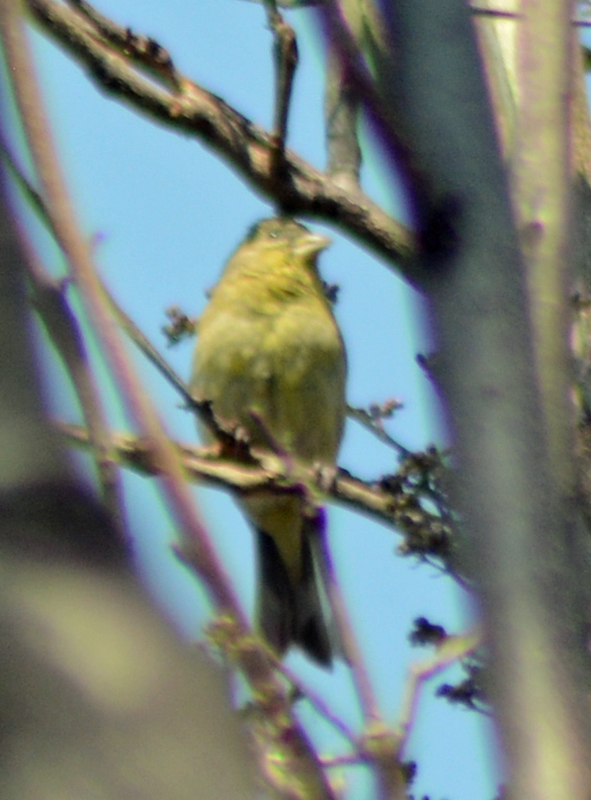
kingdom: Animalia
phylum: Chordata
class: Aves
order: Passeriformes
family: Fringillidae
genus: Spinus
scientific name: Spinus psaltria
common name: Lesser goldfinch
